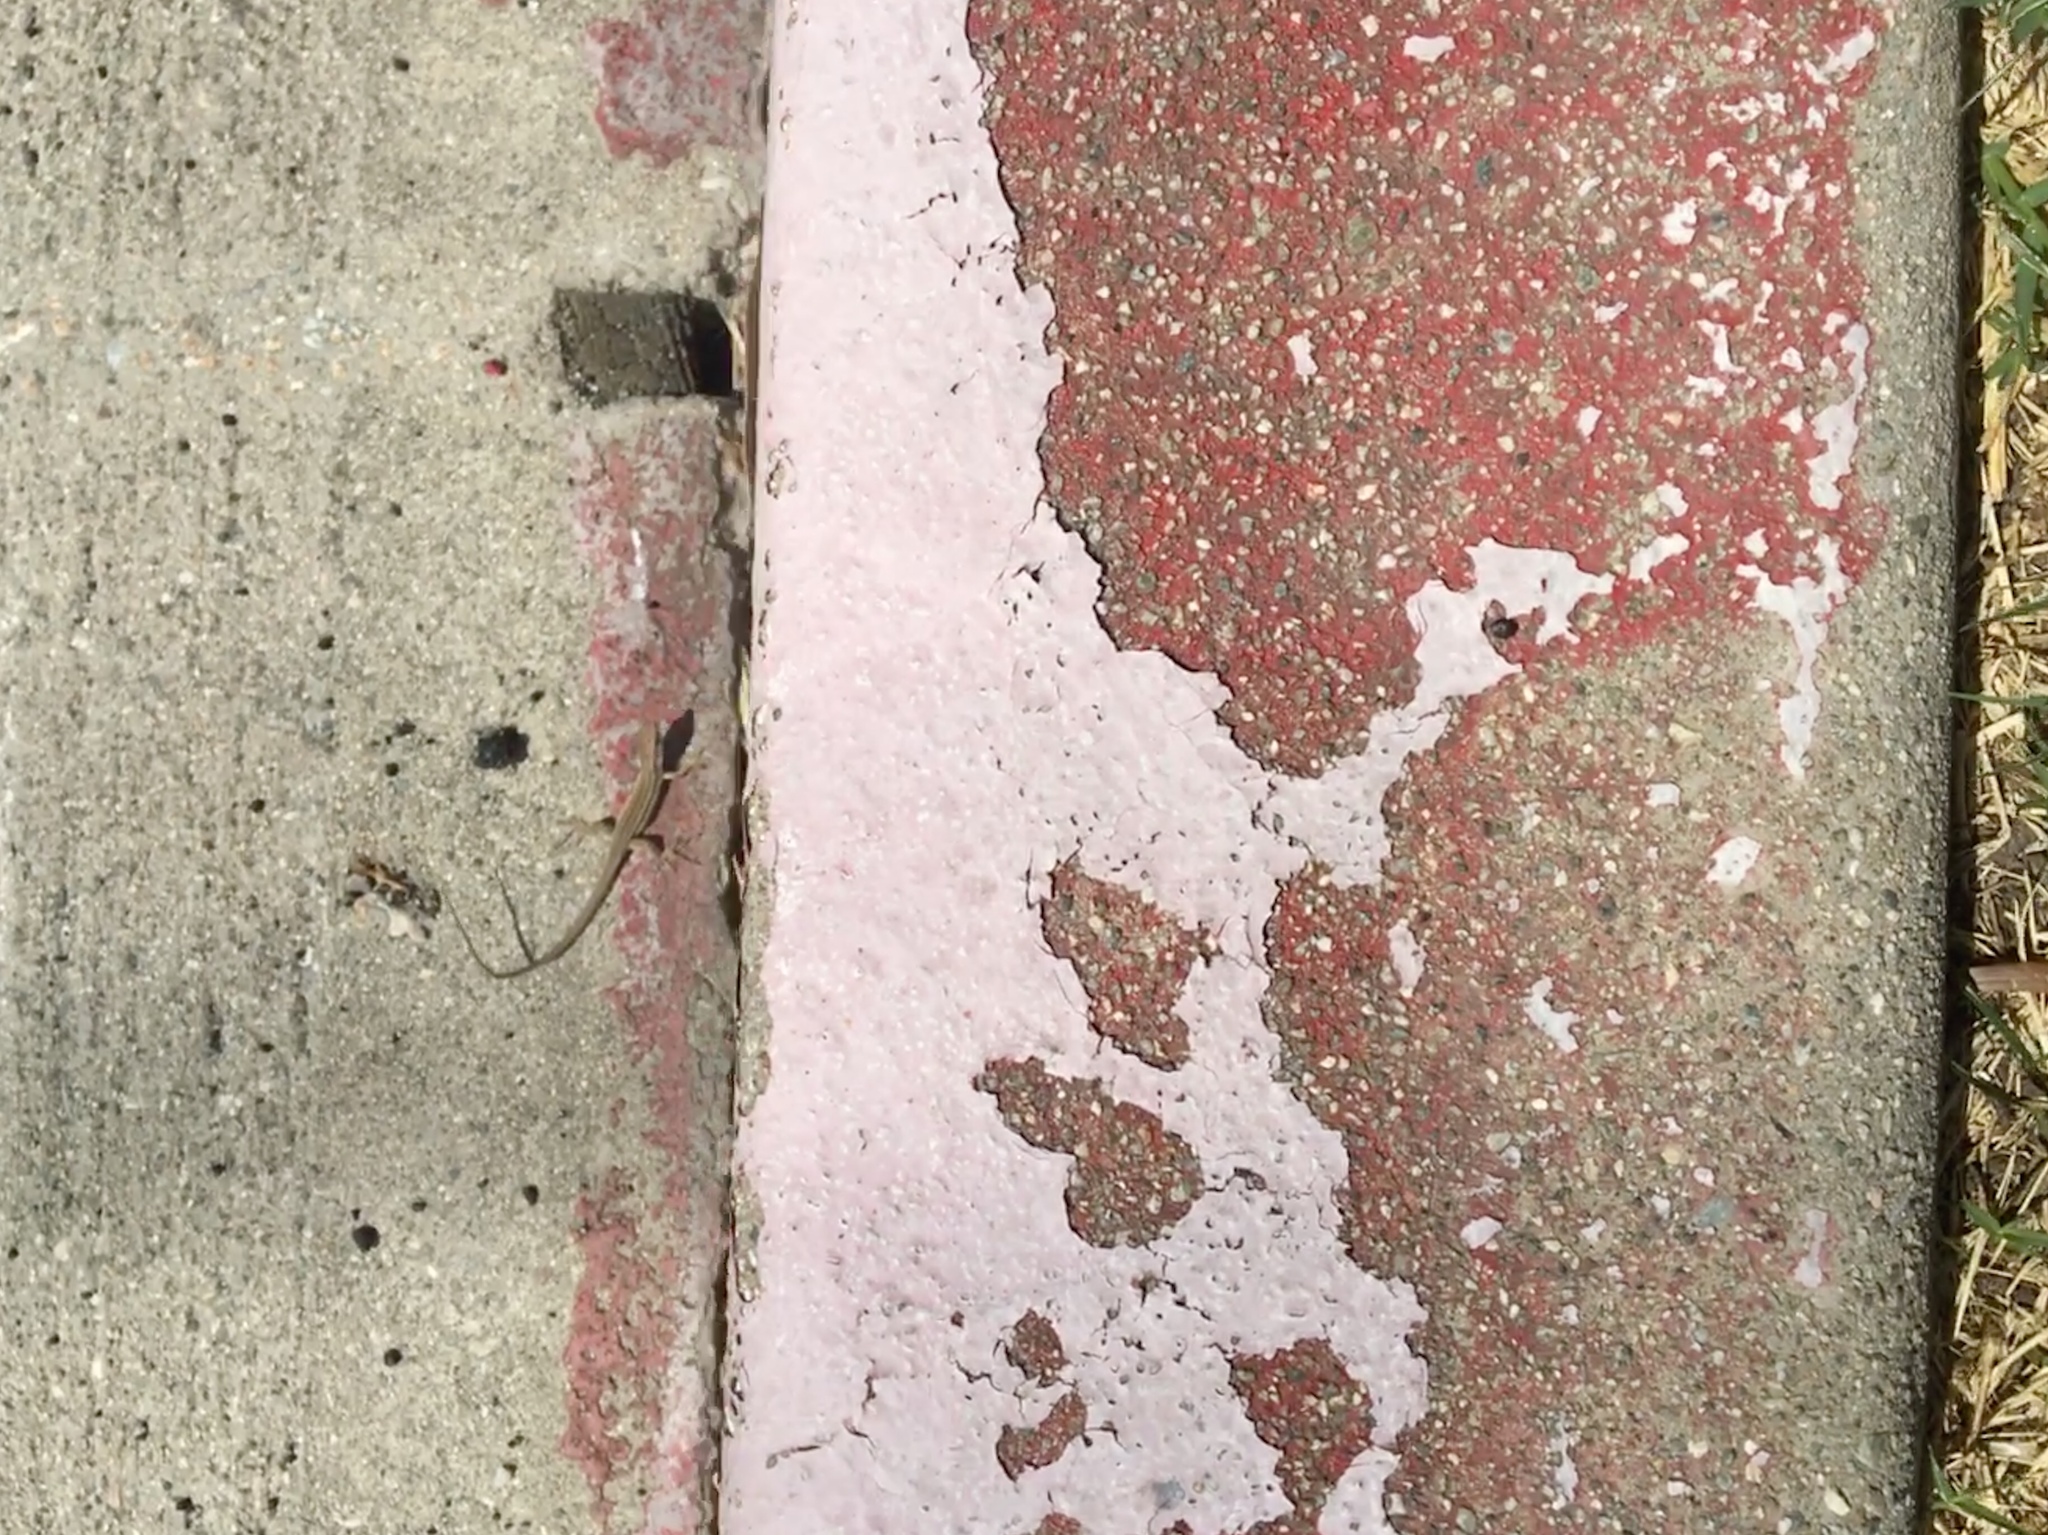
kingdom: Animalia
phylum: Chordata
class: Squamata
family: Lacertidae
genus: Podarcis
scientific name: Podarcis siculus
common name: Italian wall lizard
